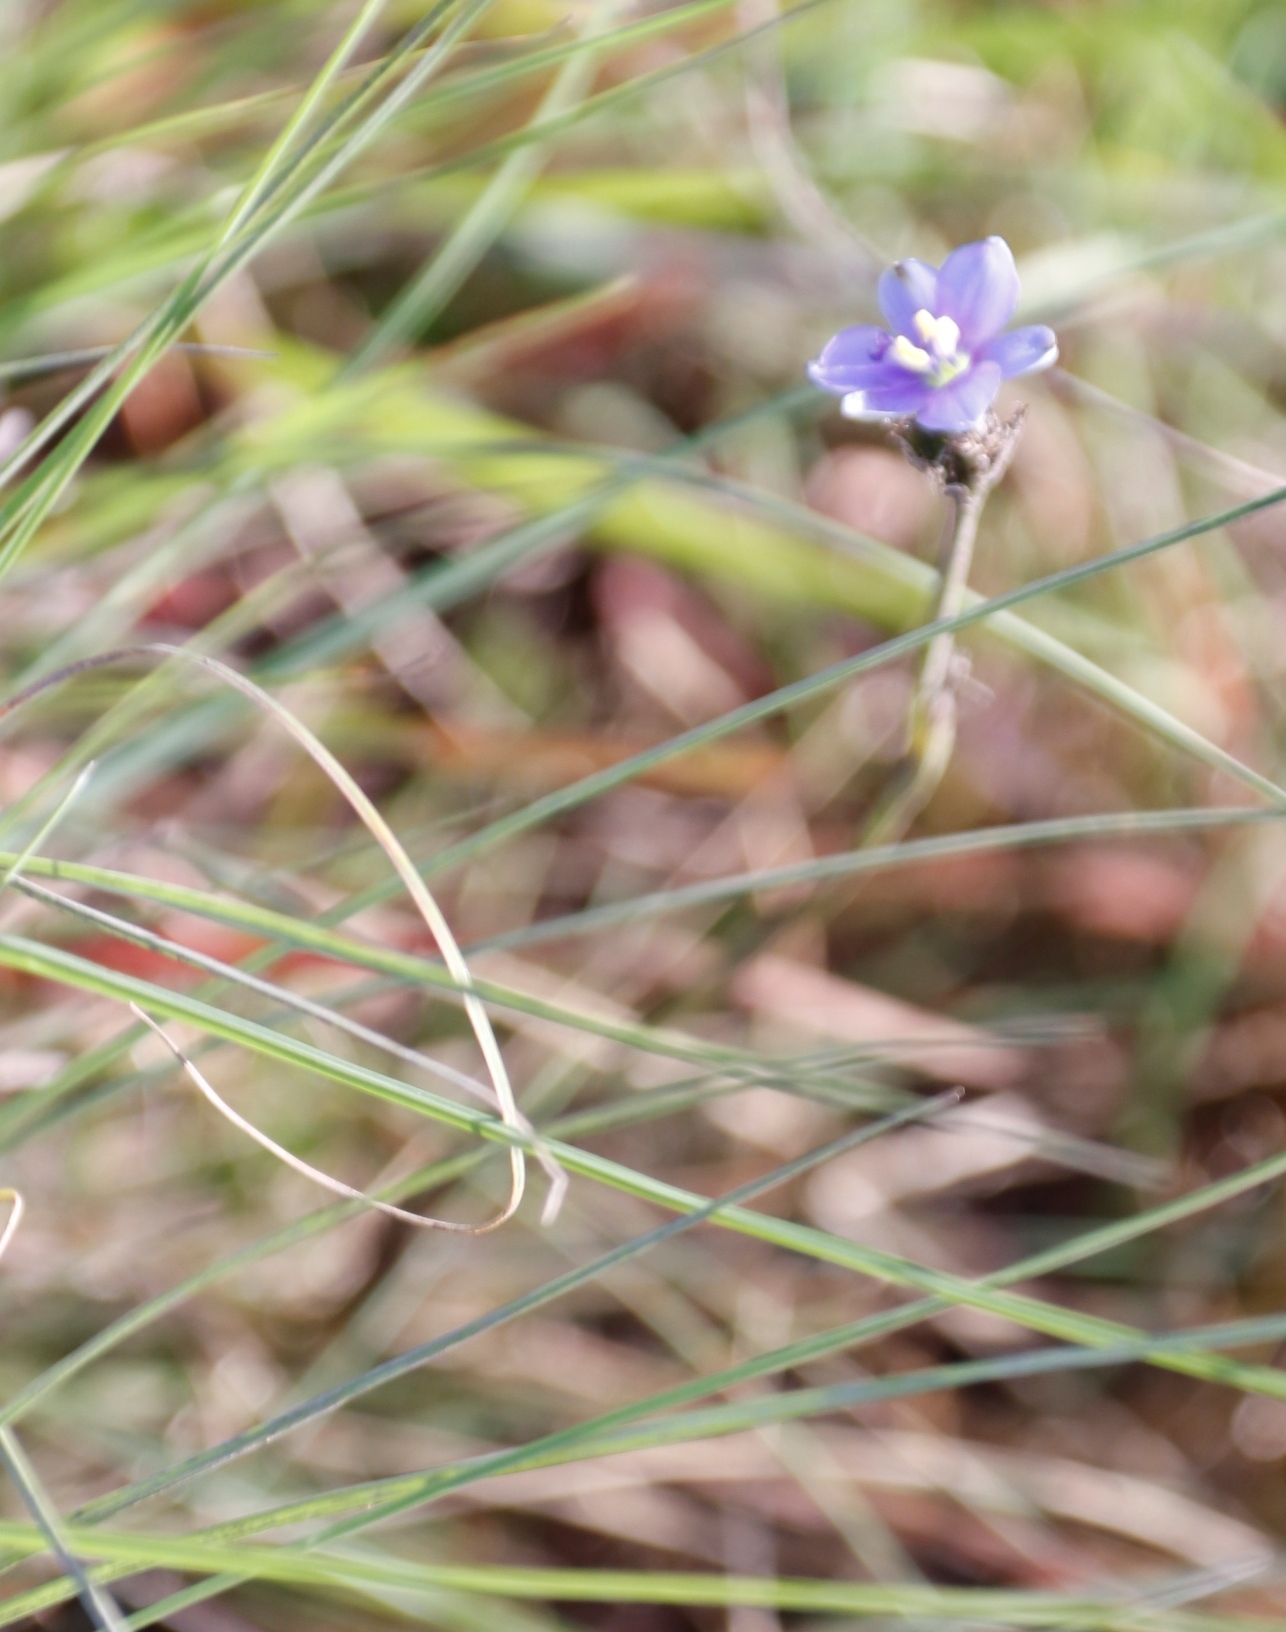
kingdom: Plantae
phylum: Tracheophyta
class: Liliopsida
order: Asparagales
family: Iridaceae
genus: Aristea
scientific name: Aristea abyssinica
